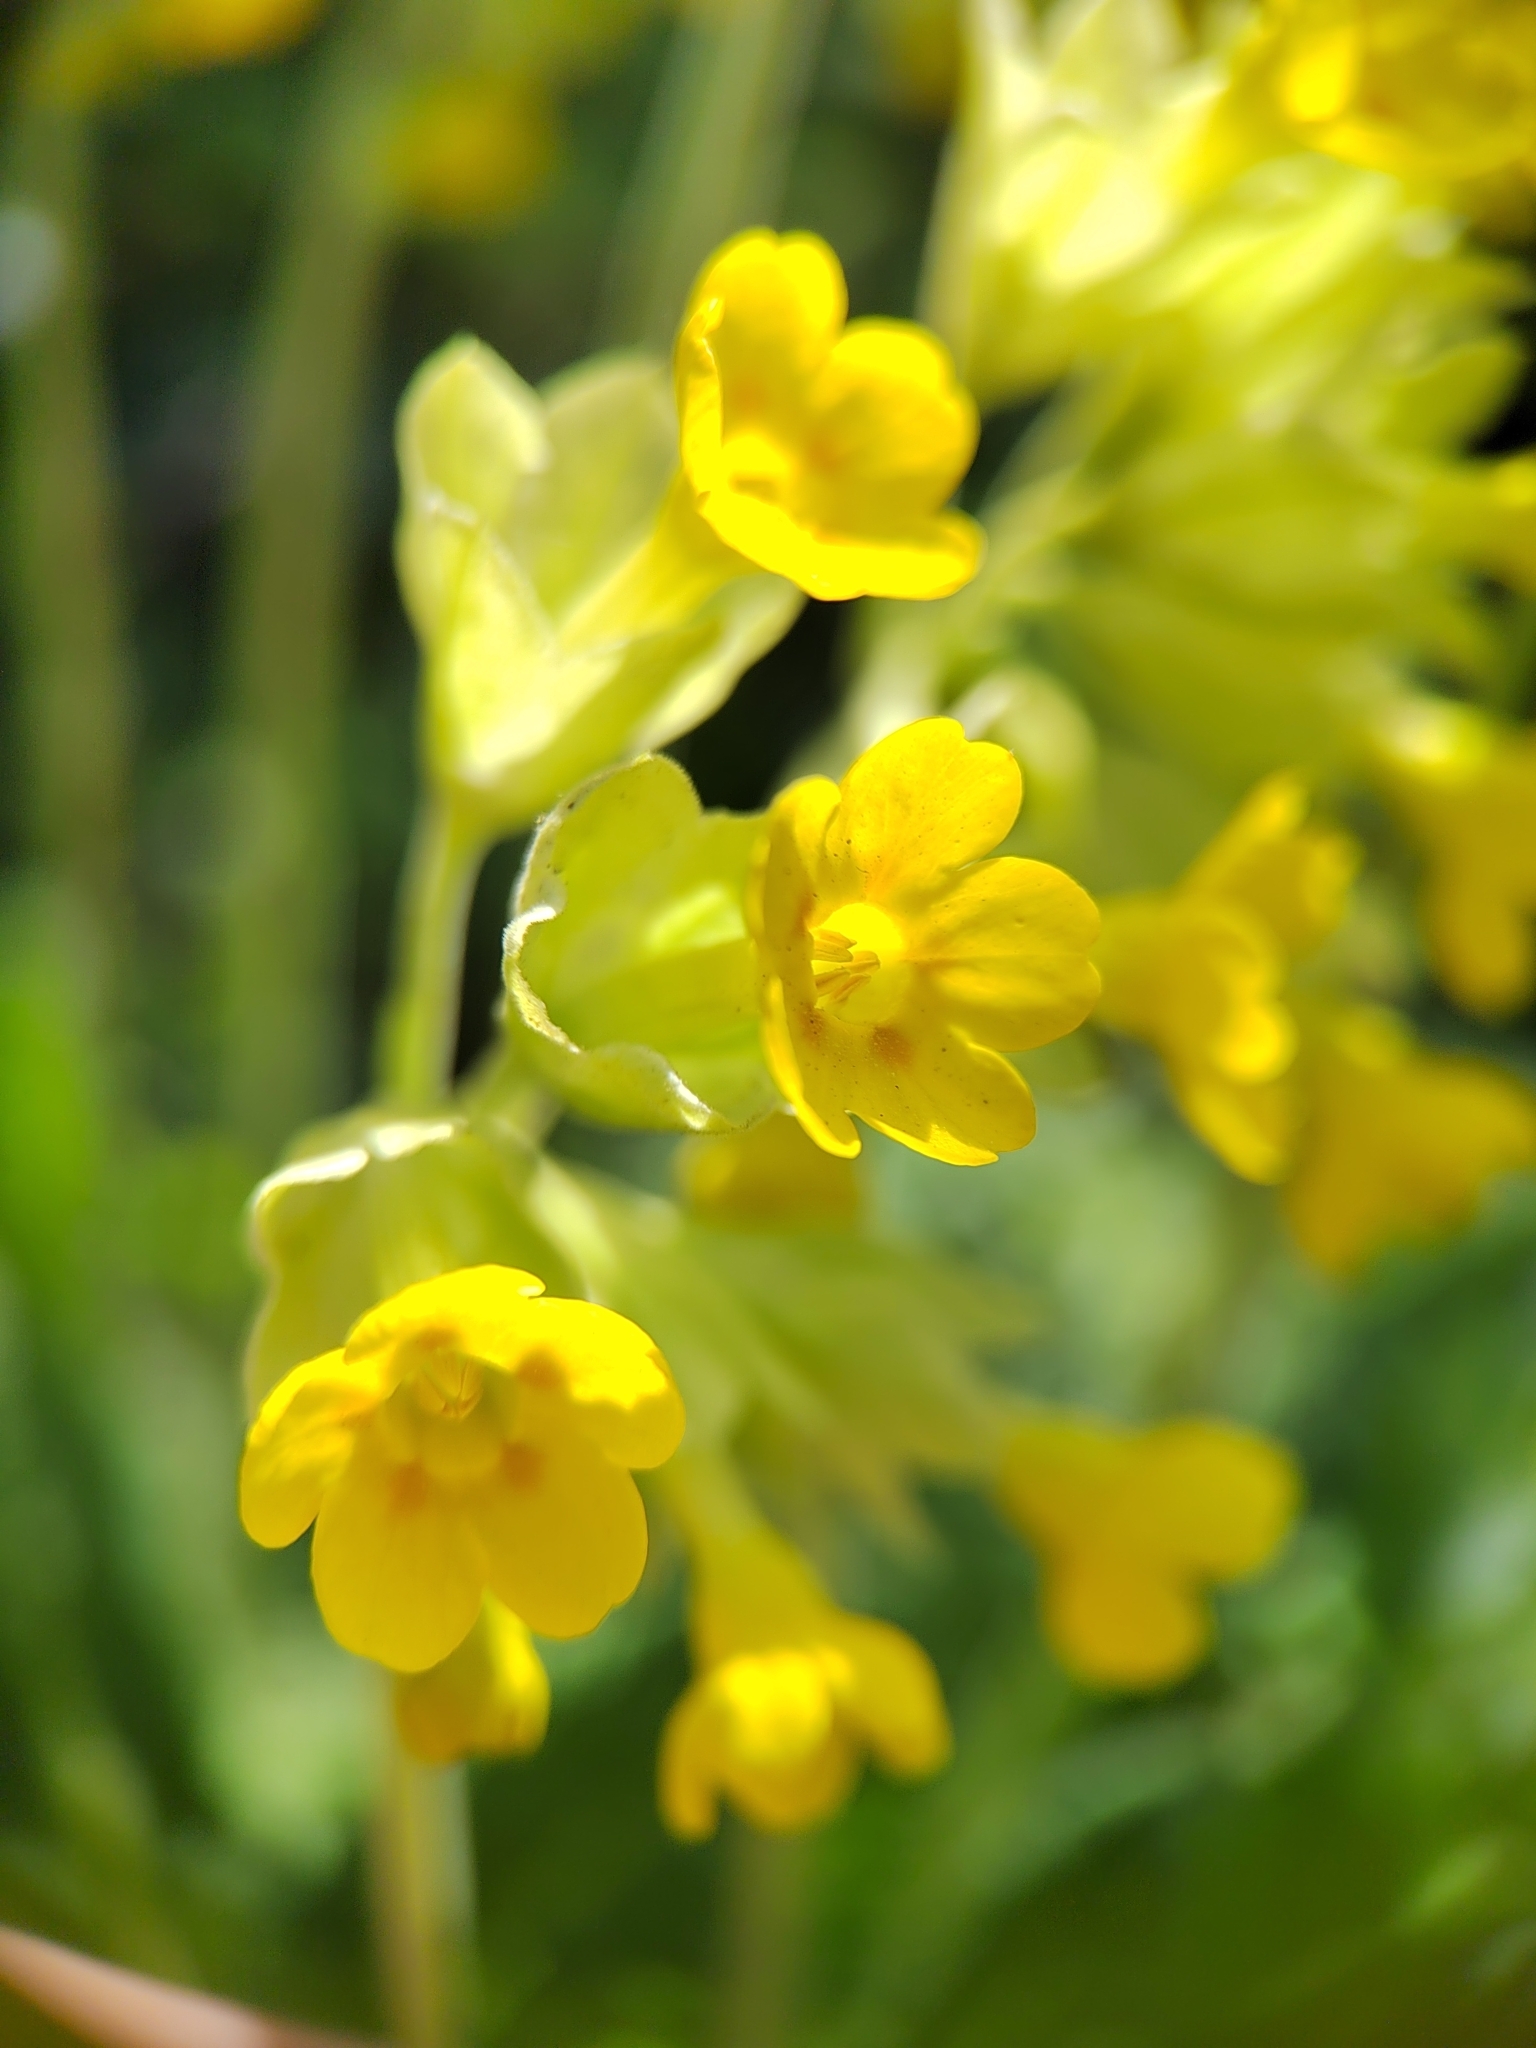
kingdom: Plantae
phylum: Tracheophyta
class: Magnoliopsida
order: Ericales
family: Primulaceae
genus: Primula
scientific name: Primula veris
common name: Cowslip
